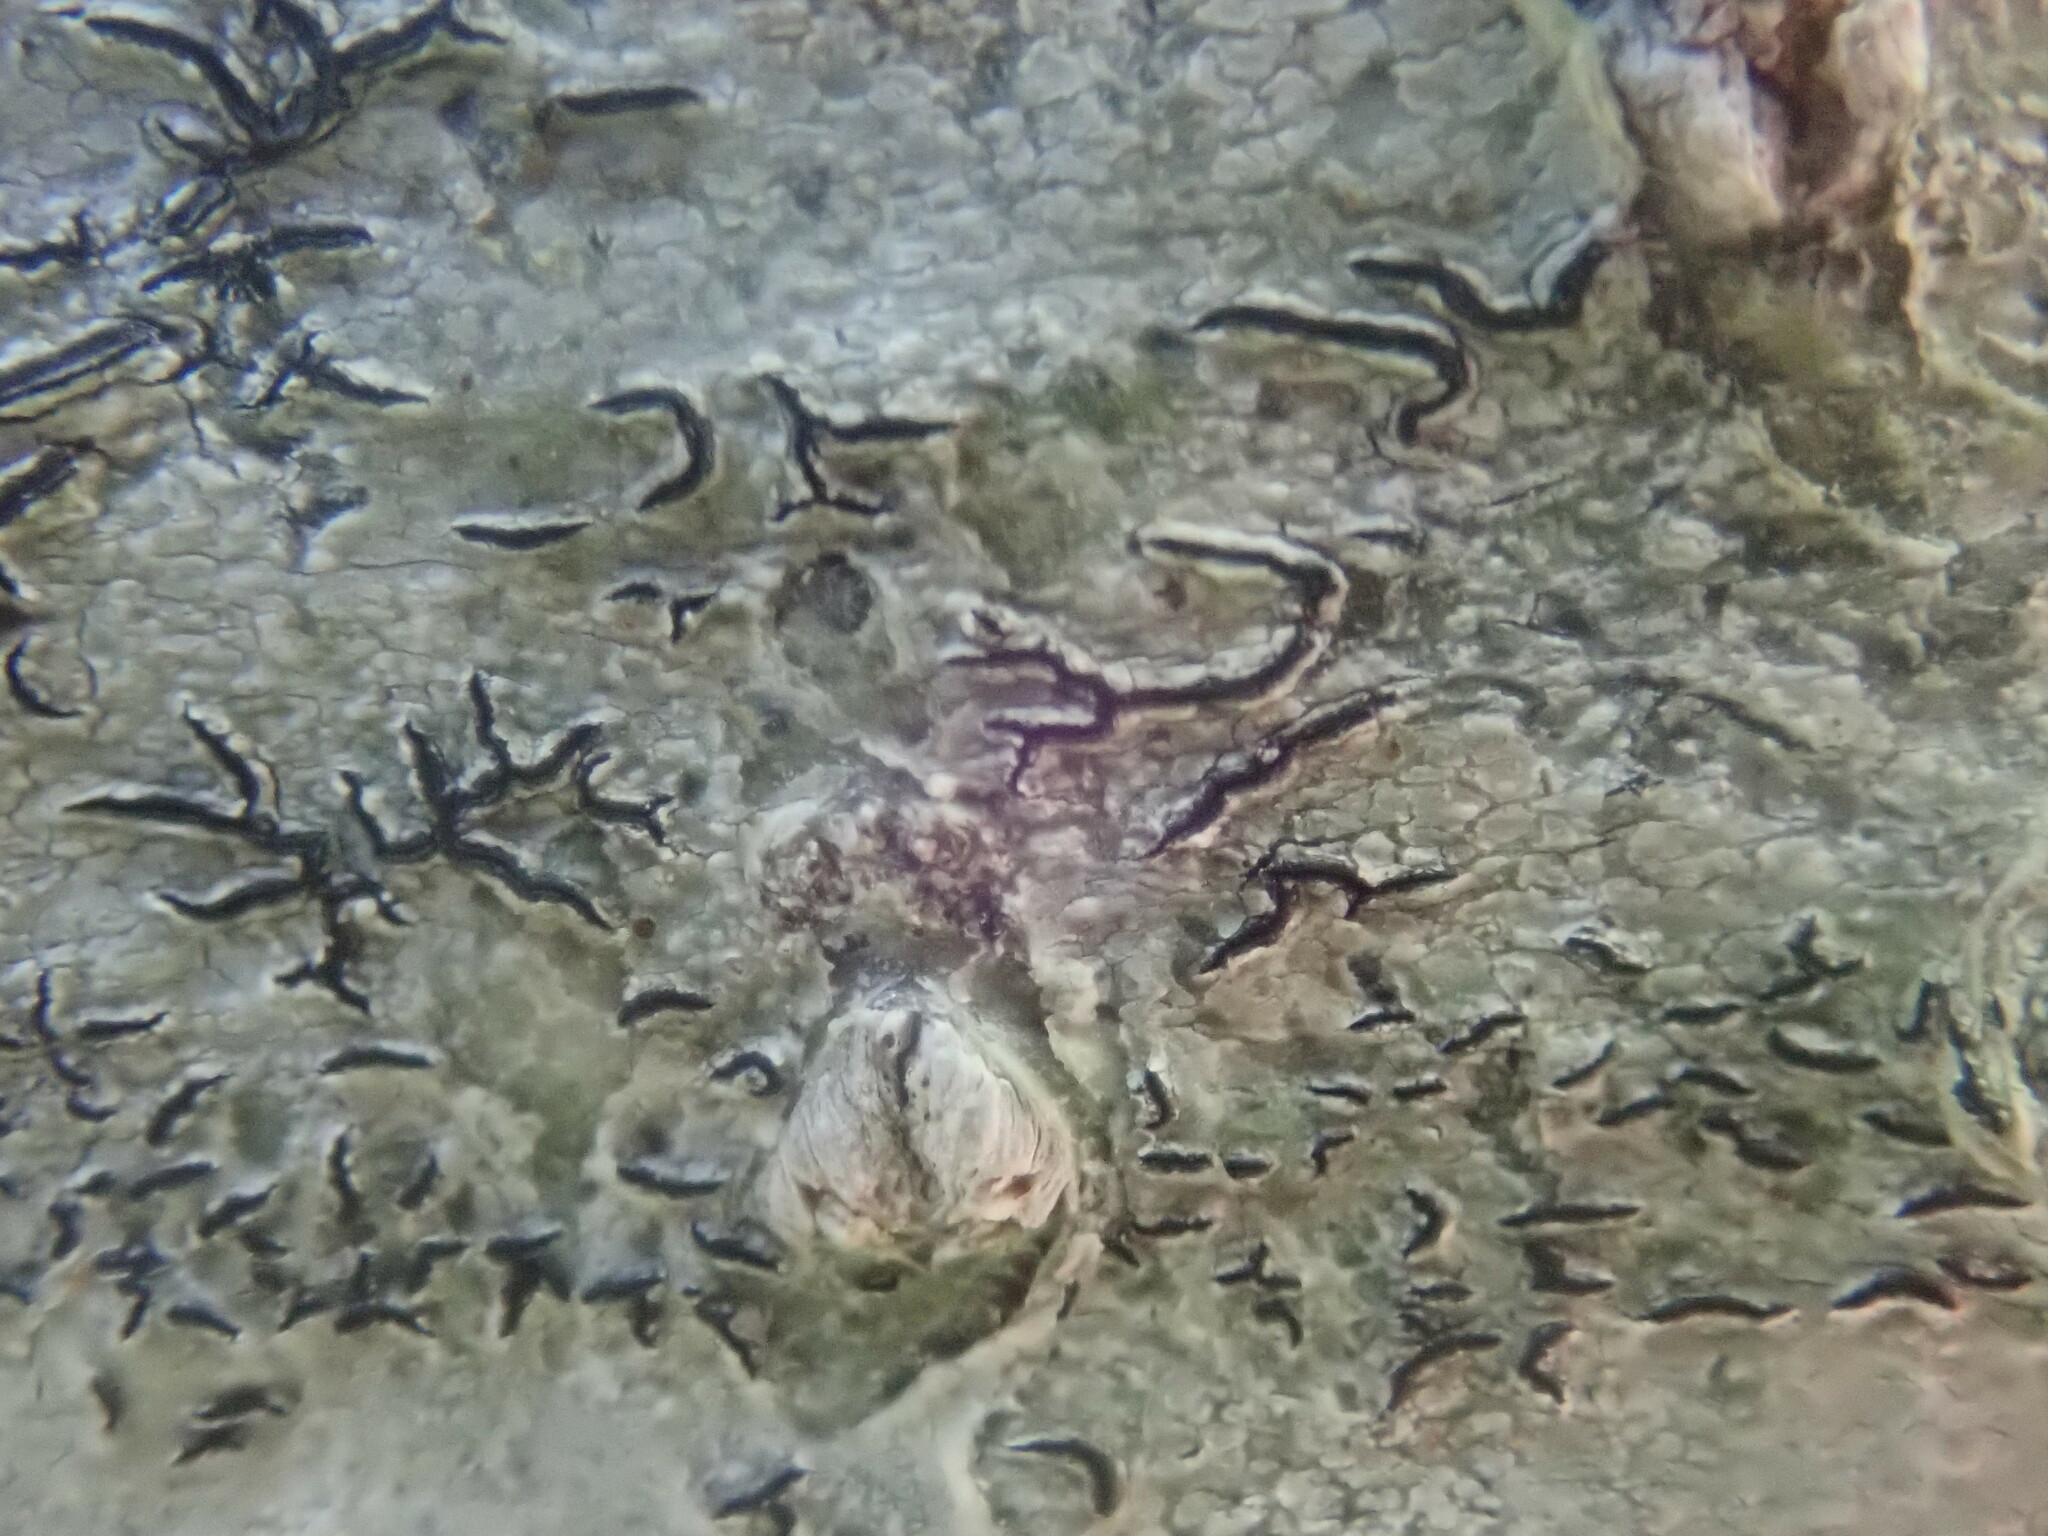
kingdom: Fungi
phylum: Ascomycota
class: Lecanoromycetes
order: Ostropales
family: Graphidaceae
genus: Graphis
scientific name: Graphis scripta
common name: Script lichen
